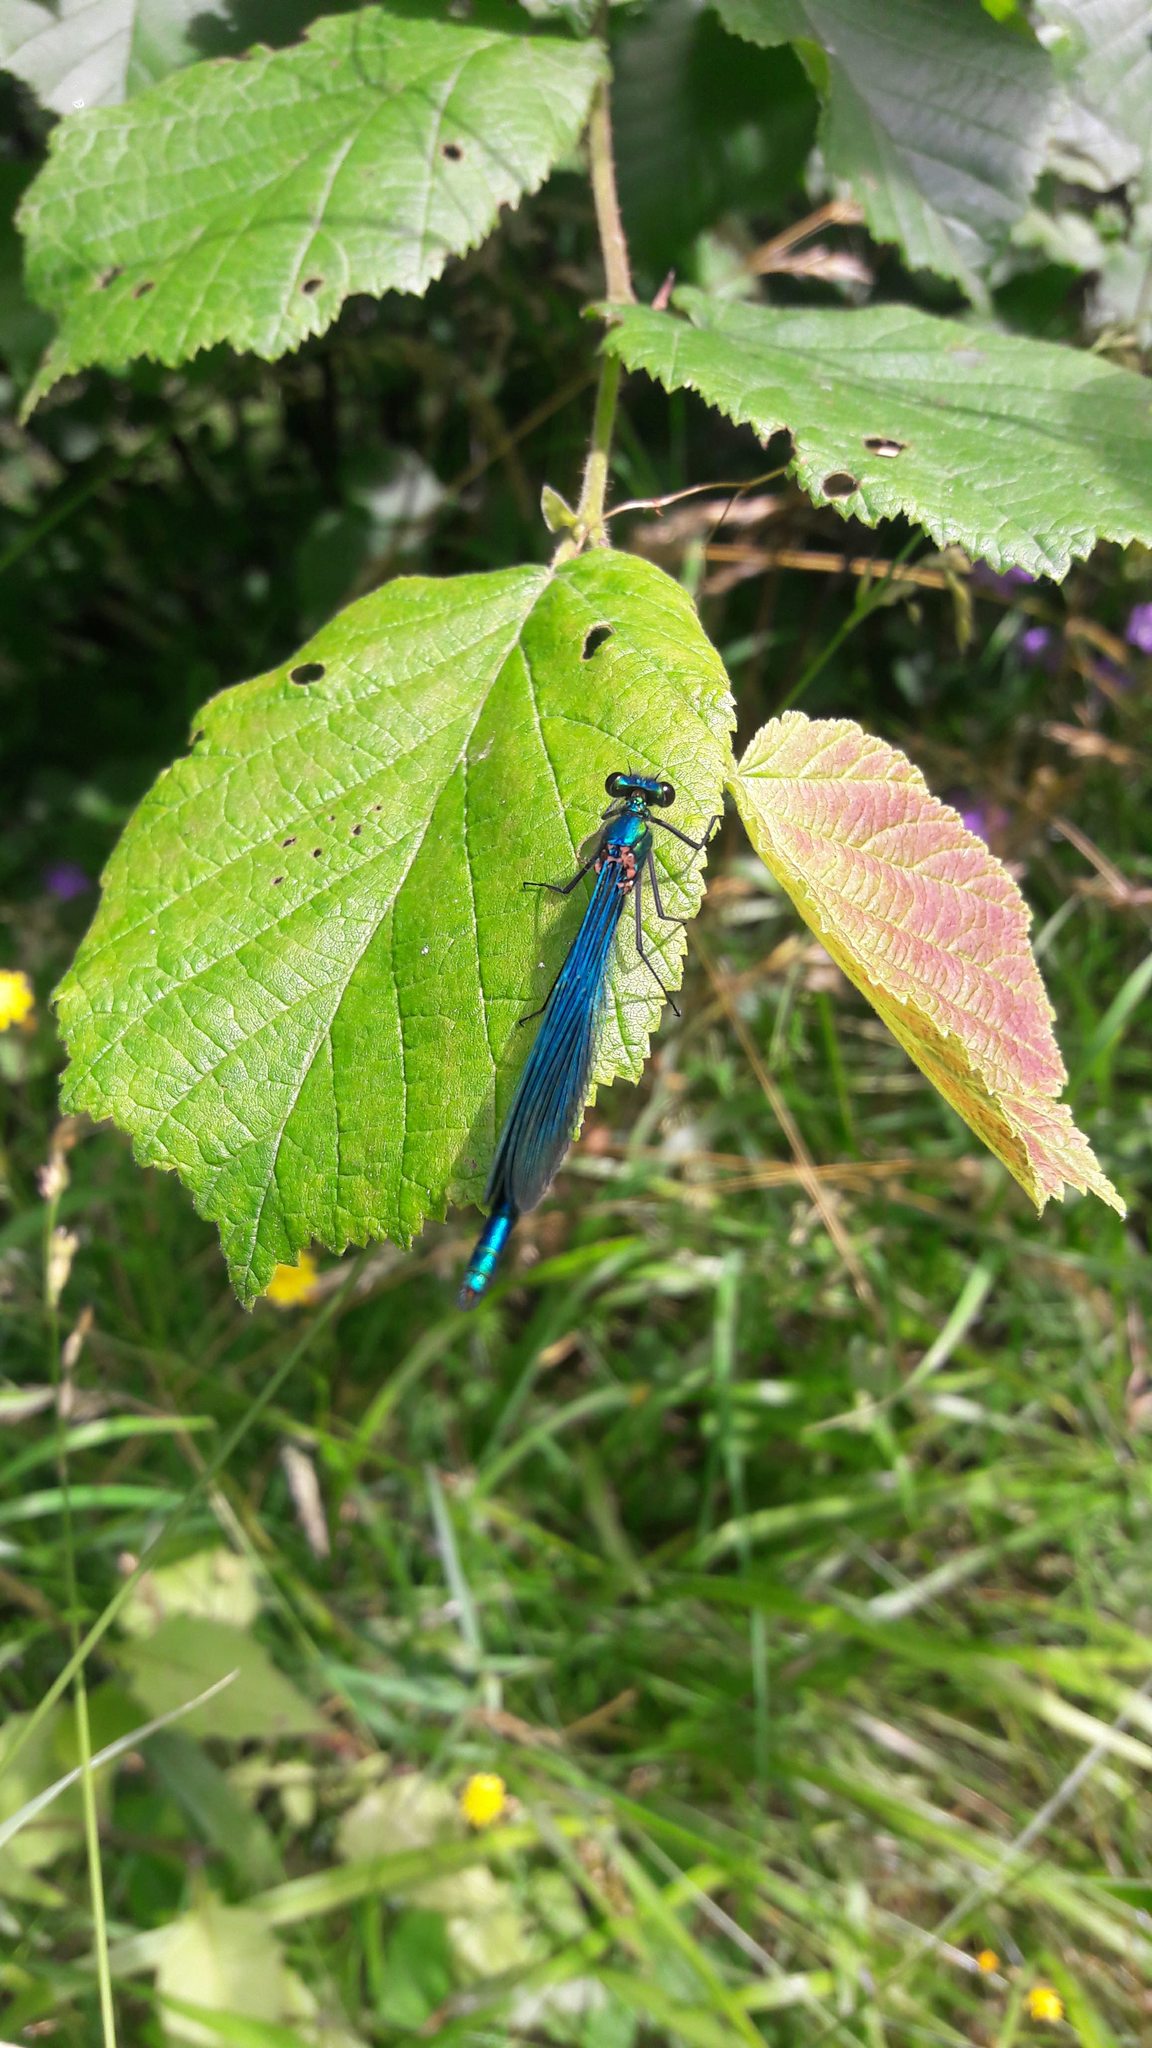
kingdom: Animalia
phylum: Arthropoda
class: Insecta
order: Odonata
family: Calopterygidae
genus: Calopteryx
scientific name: Calopteryx virgo
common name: Beautiful demoiselle
